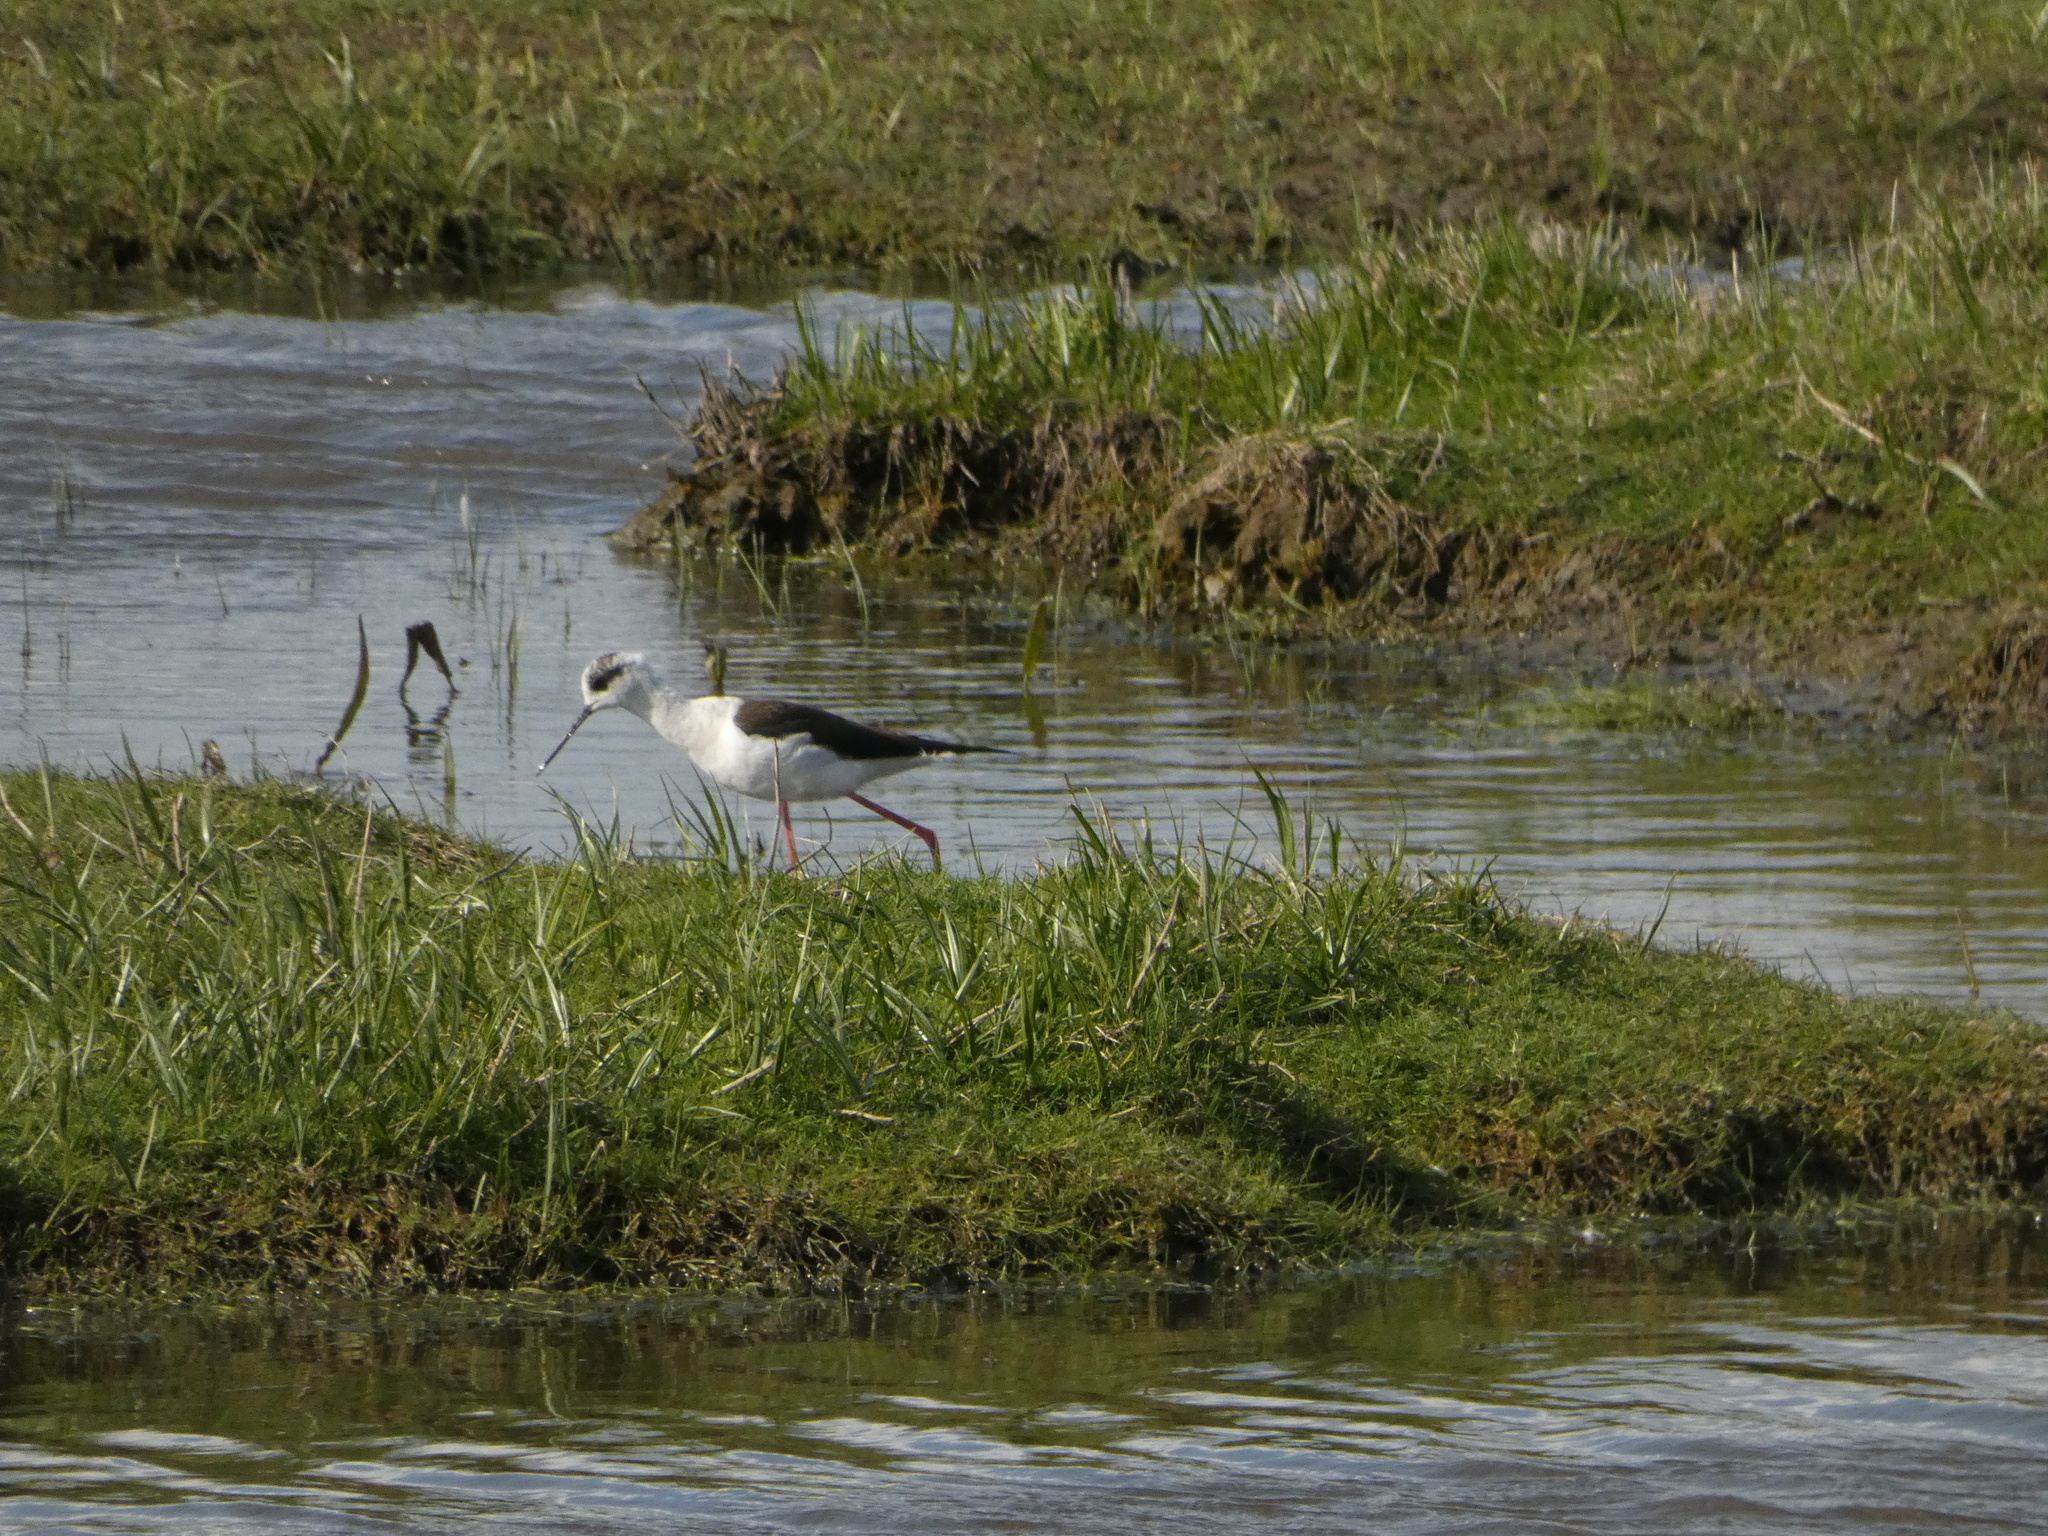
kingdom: Animalia
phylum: Chordata
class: Aves
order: Charadriiformes
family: Recurvirostridae
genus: Himantopus
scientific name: Himantopus himantopus
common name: Black-winged stilt
